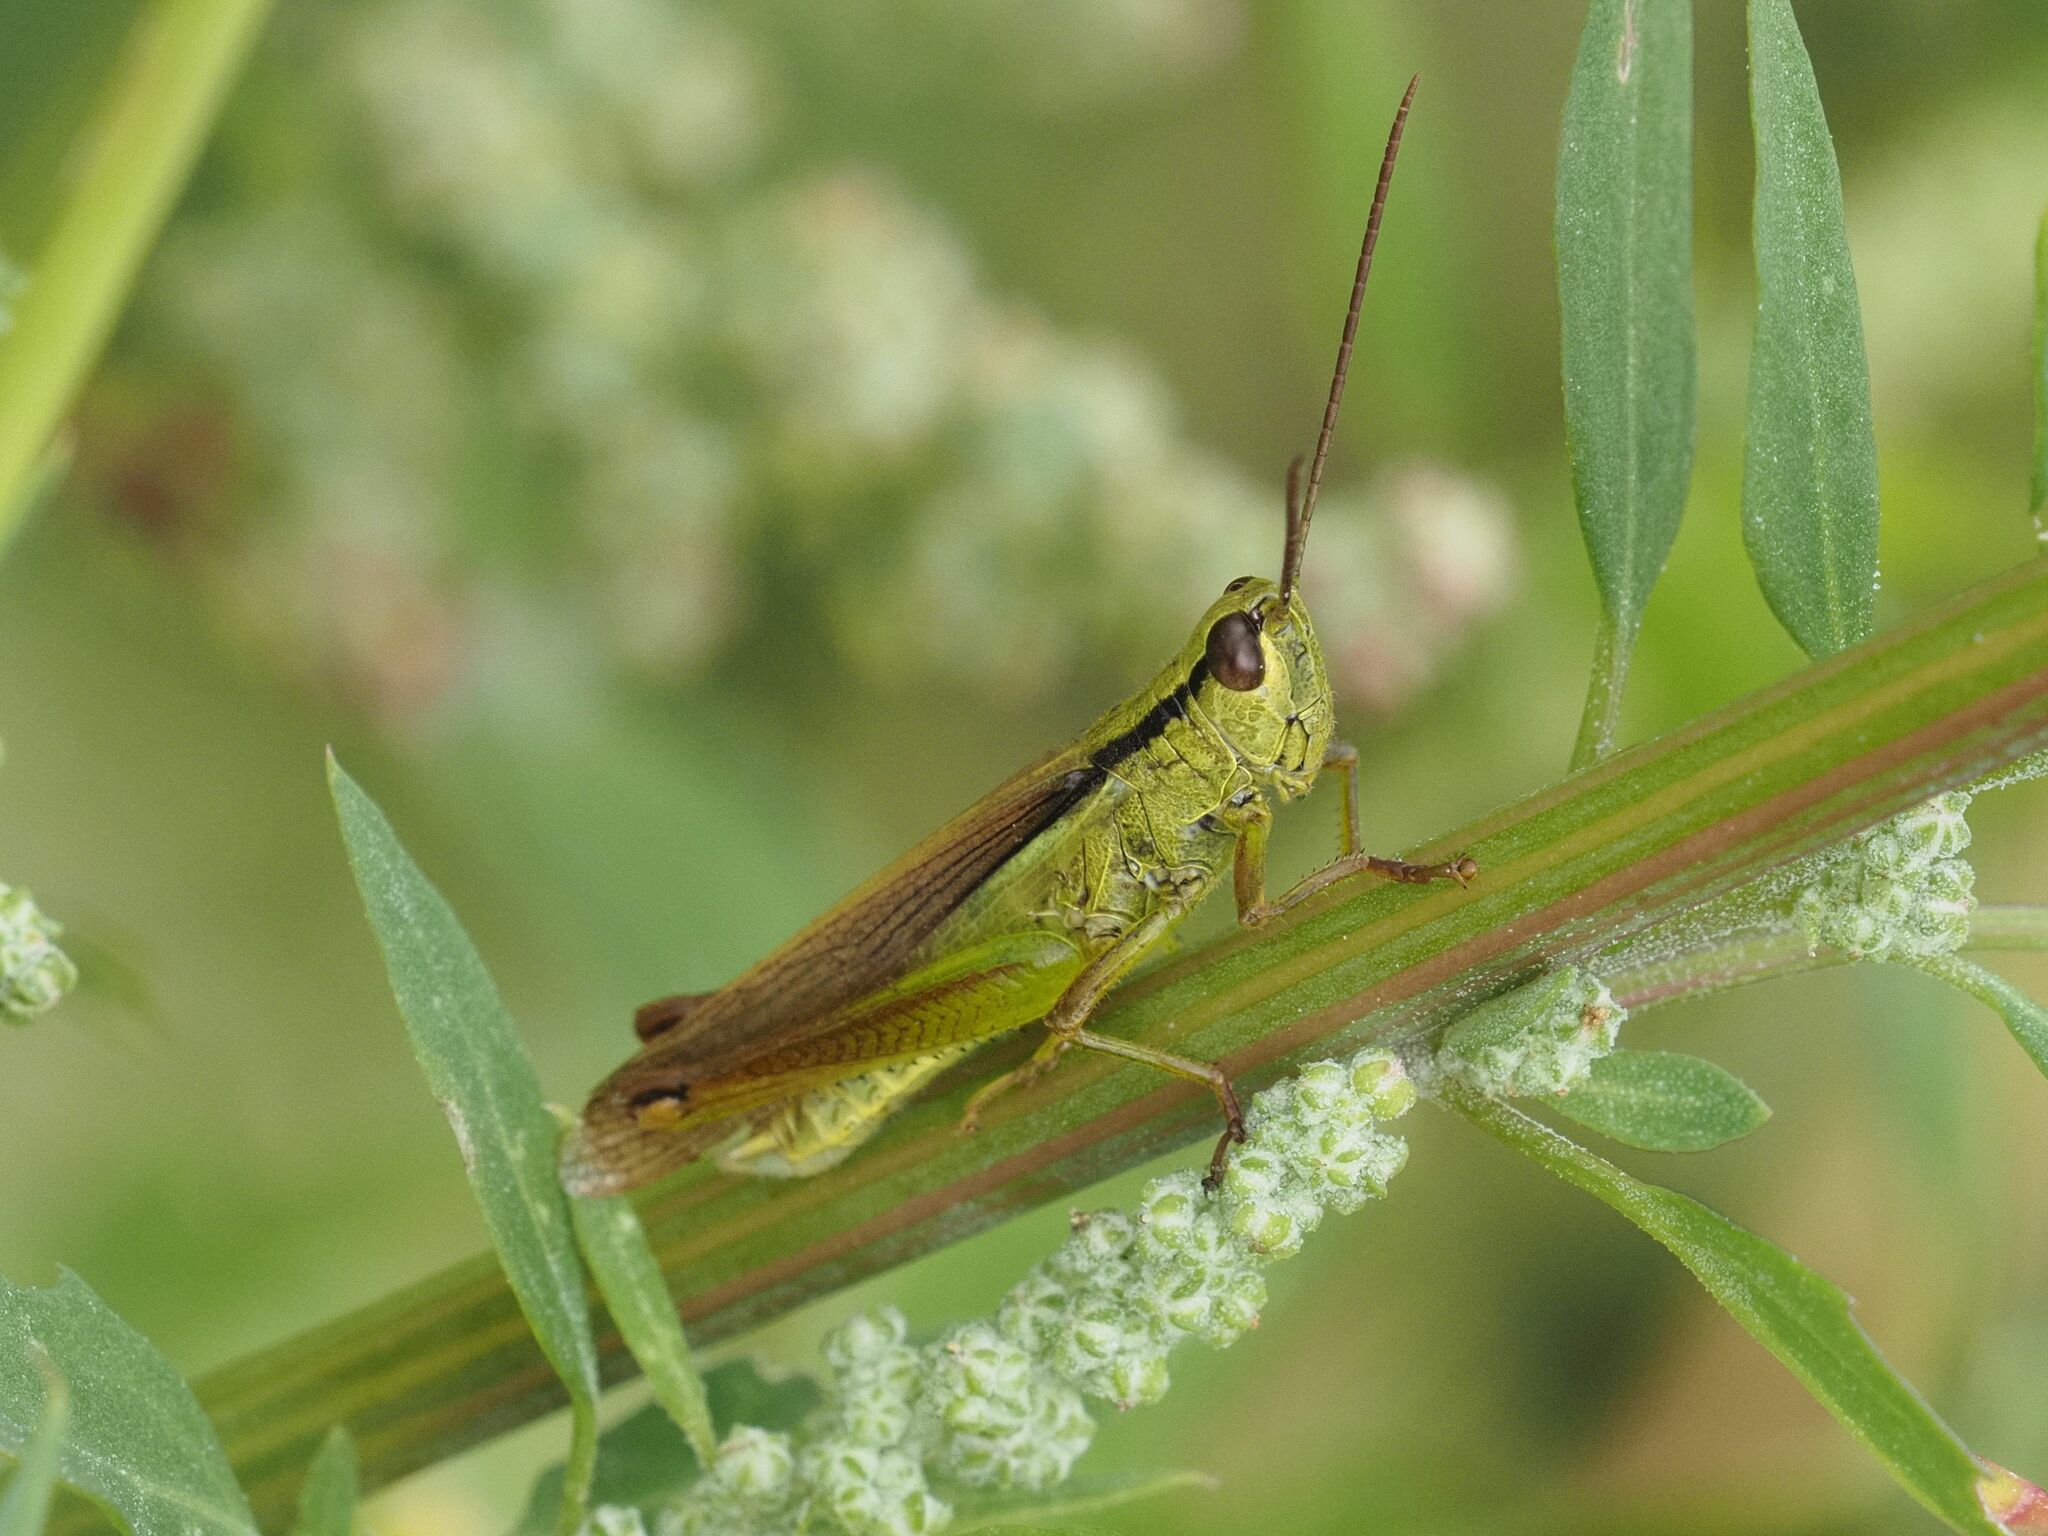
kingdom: Animalia
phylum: Arthropoda
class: Insecta
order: Orthoptera
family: Acrididae
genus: Mecostethus
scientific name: Mecostethus parapleurus
